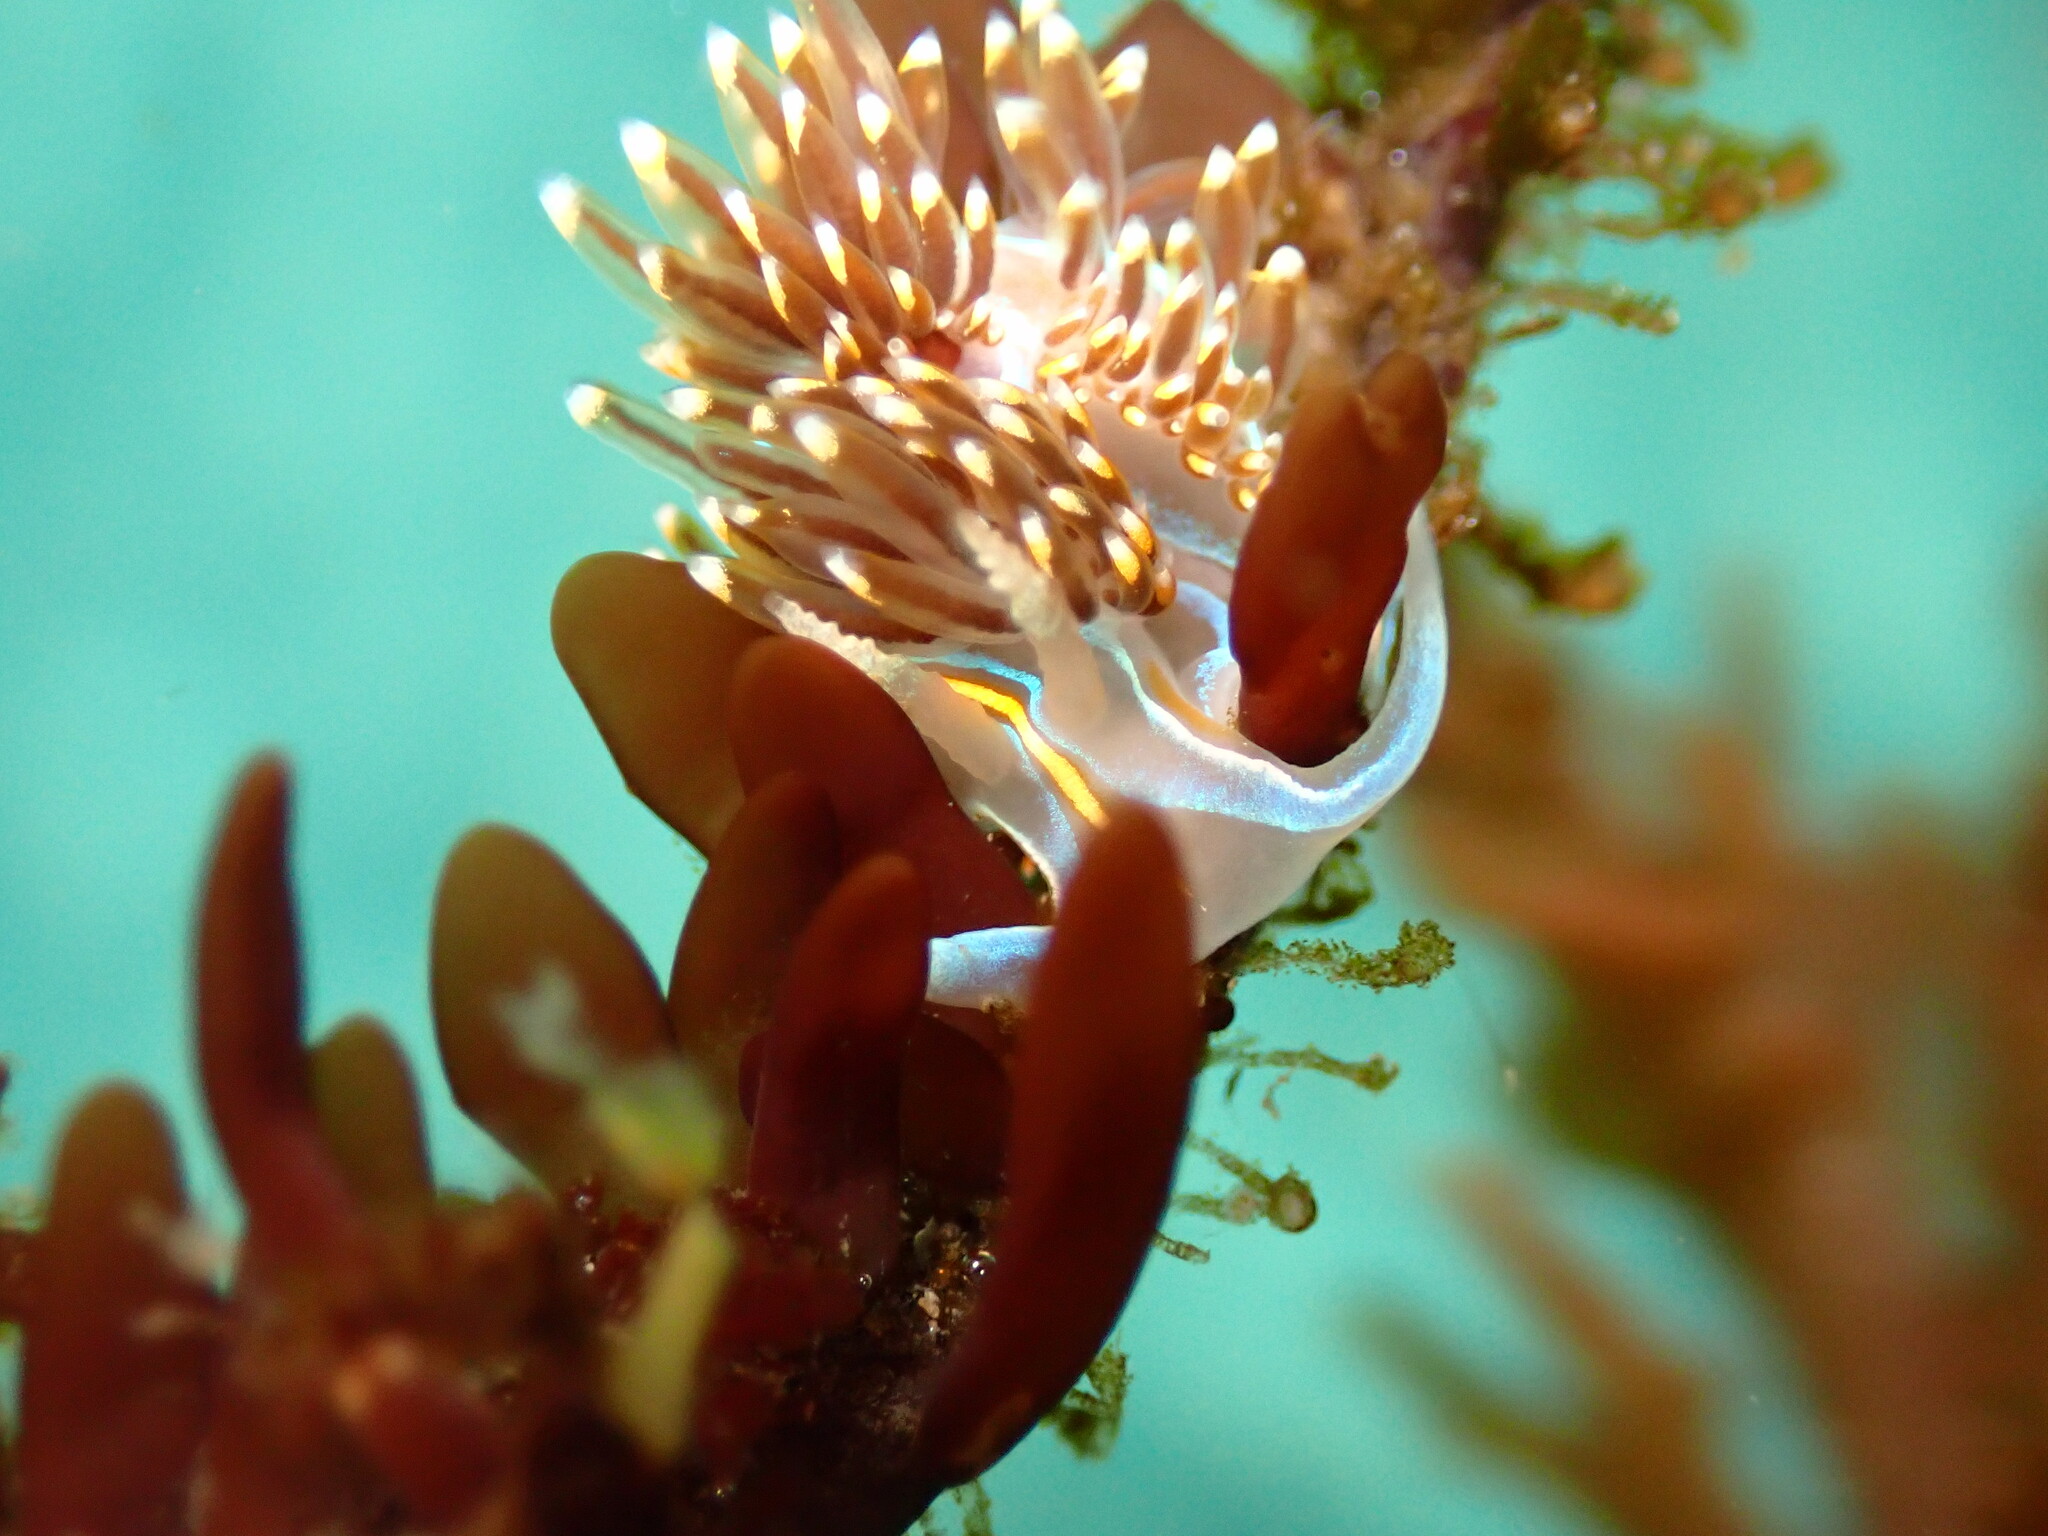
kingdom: Animalia
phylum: Mollusca
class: Gastropoda
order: Nudibranchia
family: Myrrhinidae
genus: Hermissenda
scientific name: Hermissenda opalescens
